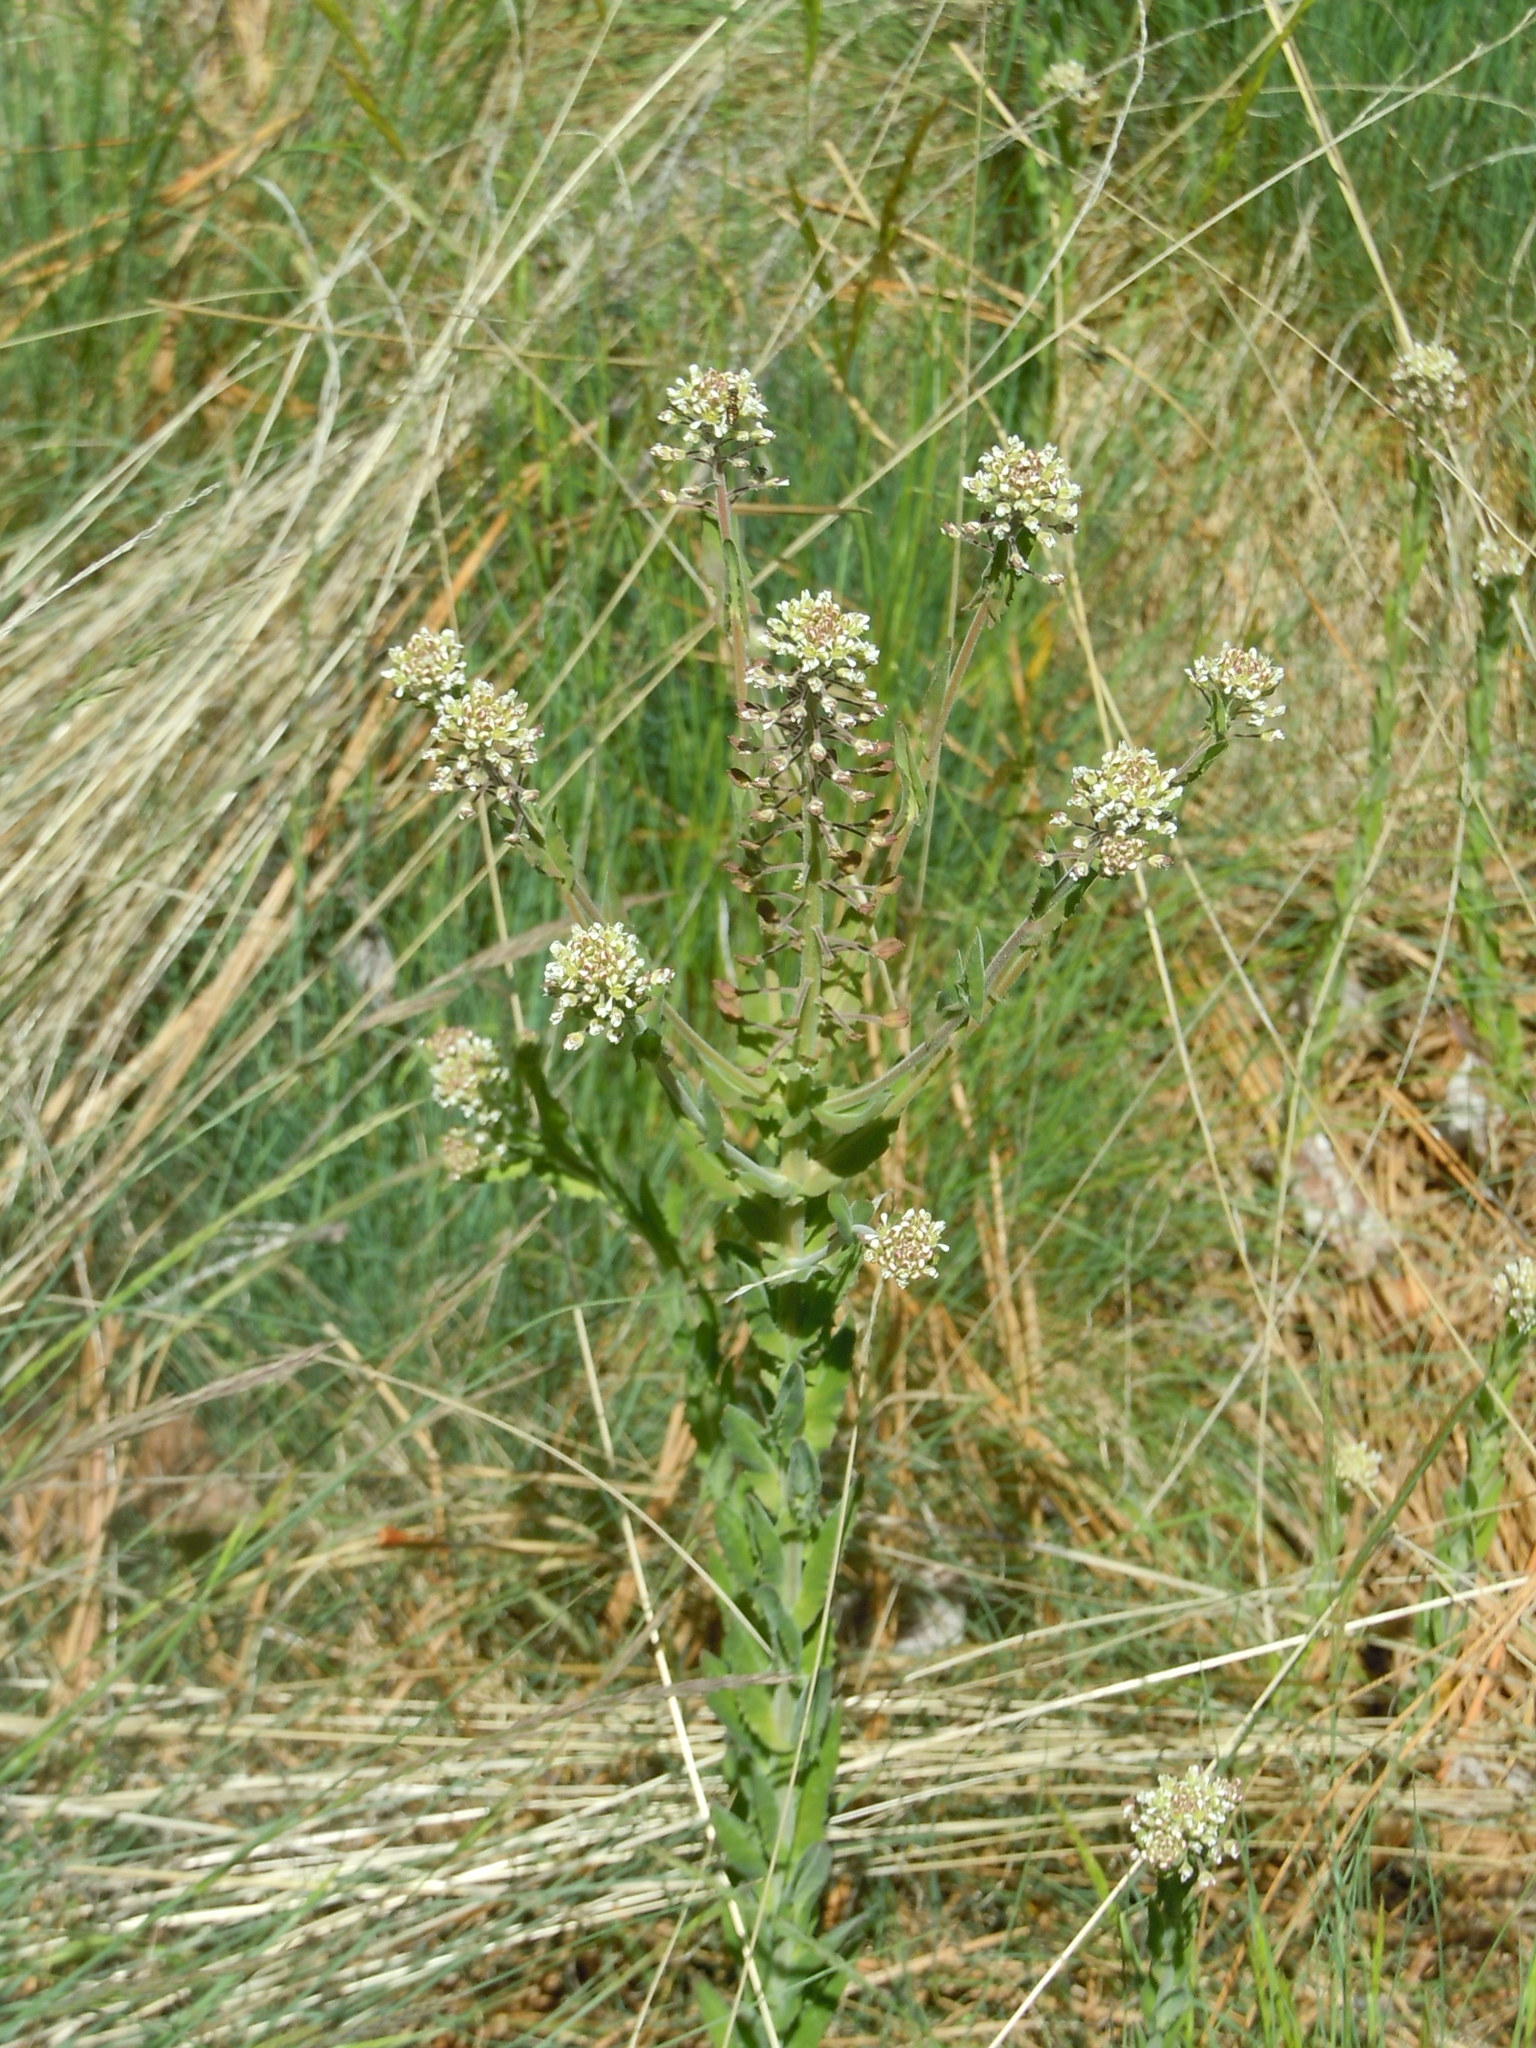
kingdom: Plantae
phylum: Tracheophyta
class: Magnoliopsida
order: Brassicales
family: Brassicaceae
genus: Lepidium
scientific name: Lepidium campestre
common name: Field pepperwort
